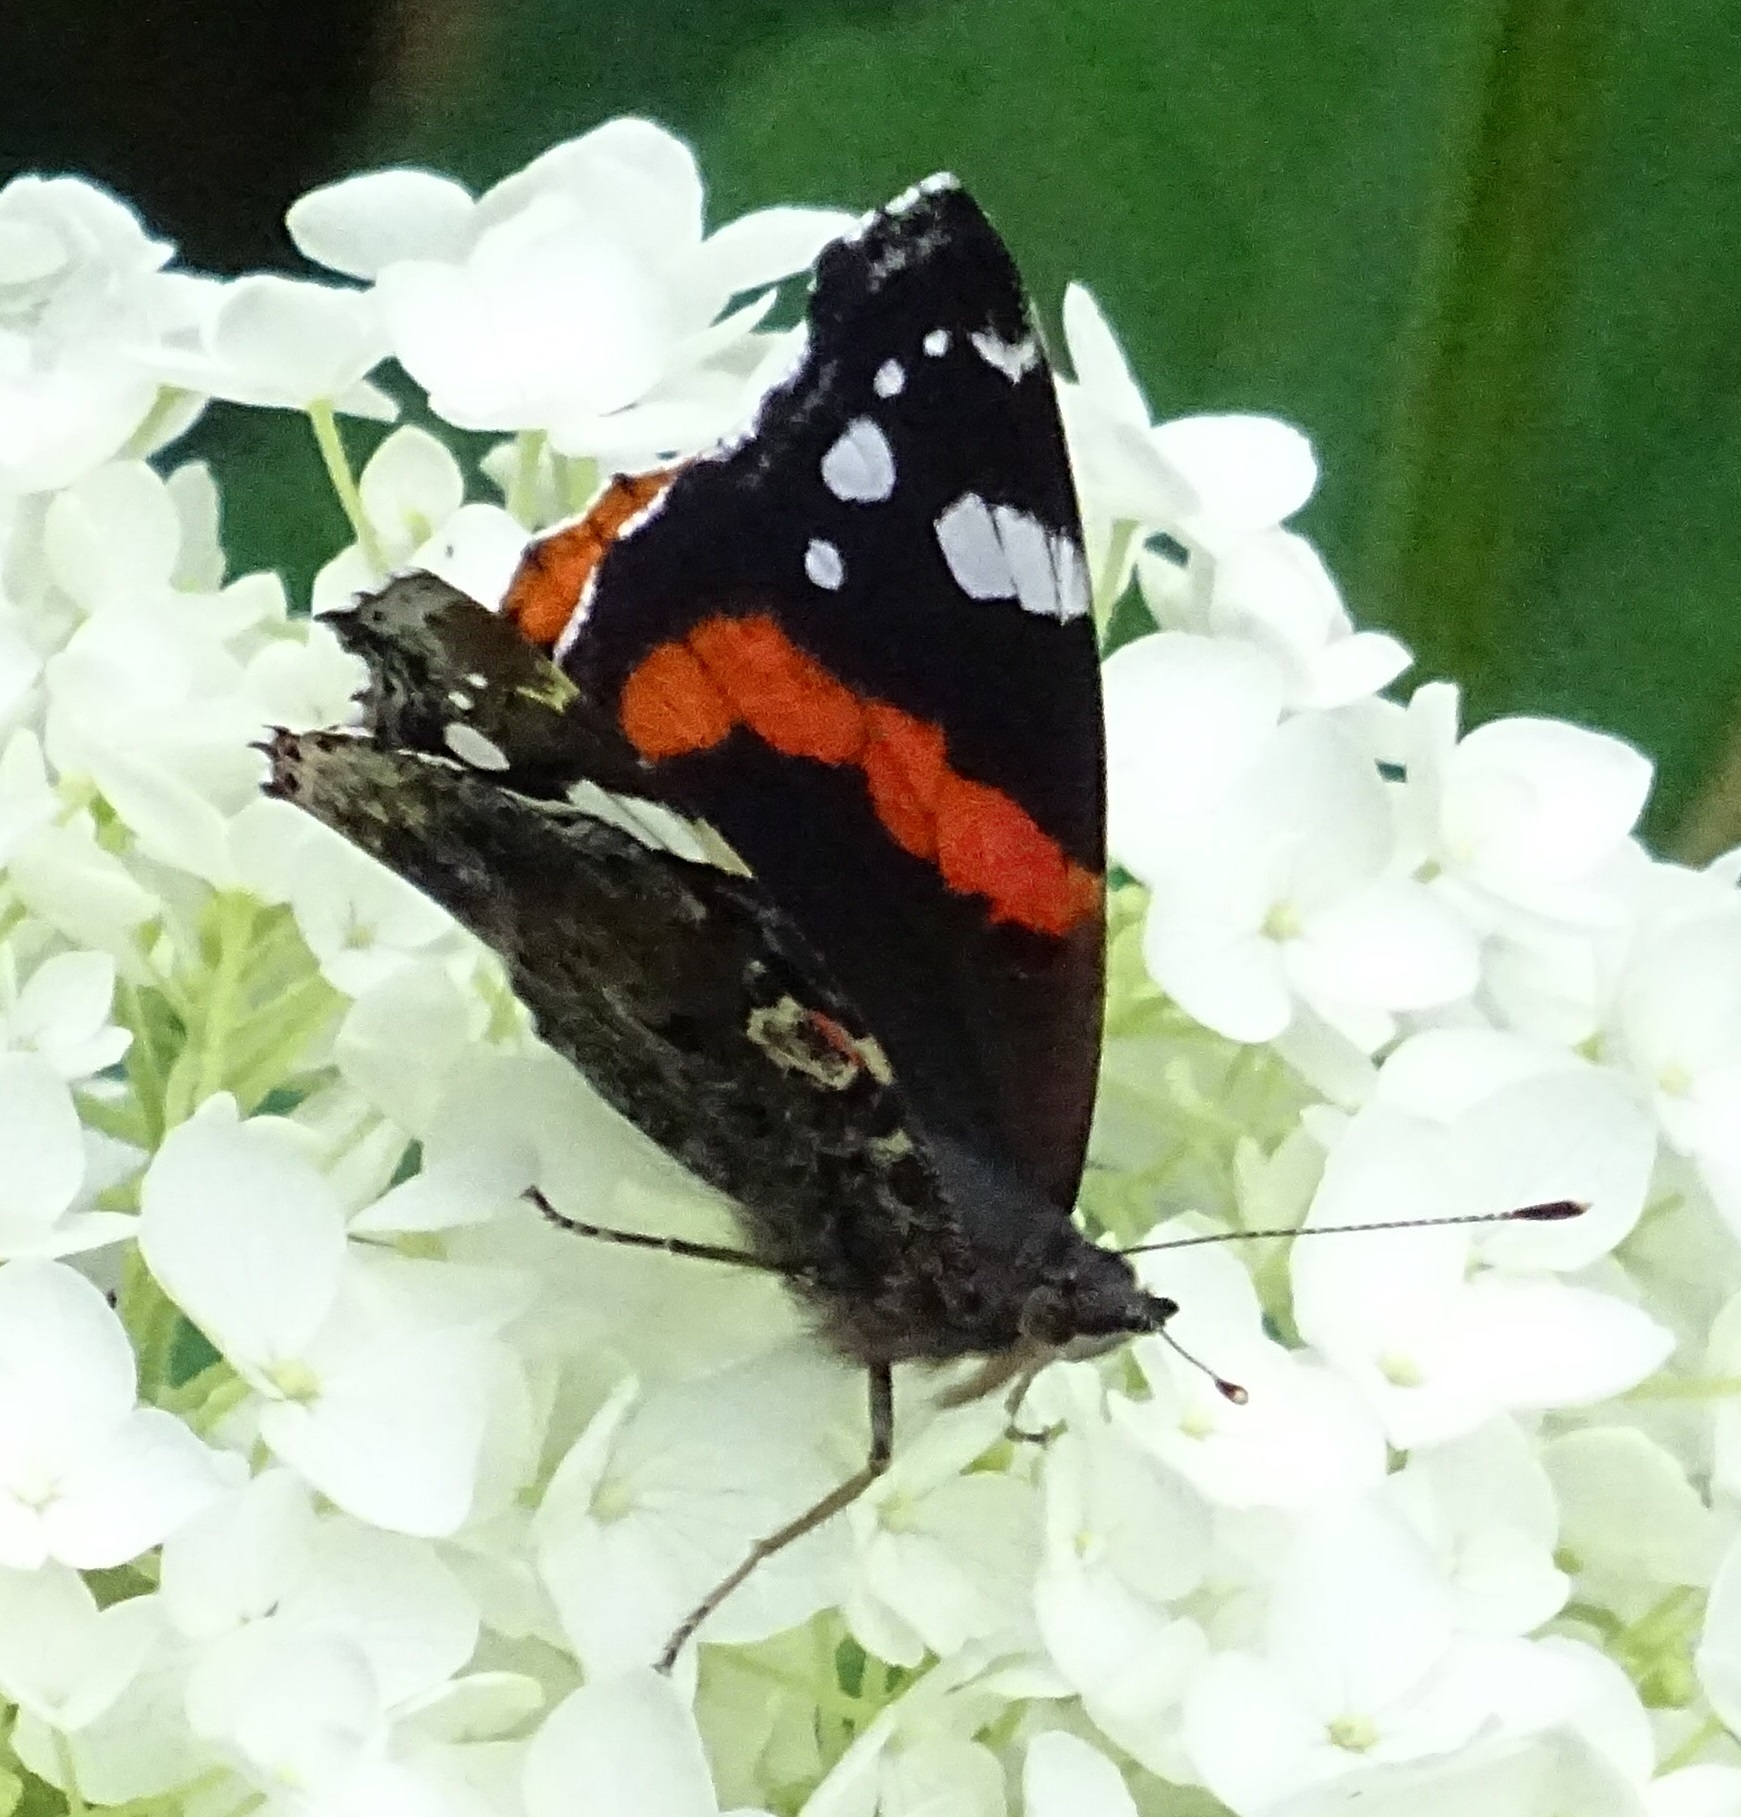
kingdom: Animalia
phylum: Arthropoda
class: Insecta
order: Lepidoptera
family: Nymphalidae
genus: Vanessa
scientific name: Vanessa atalanta
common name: Red admiral
